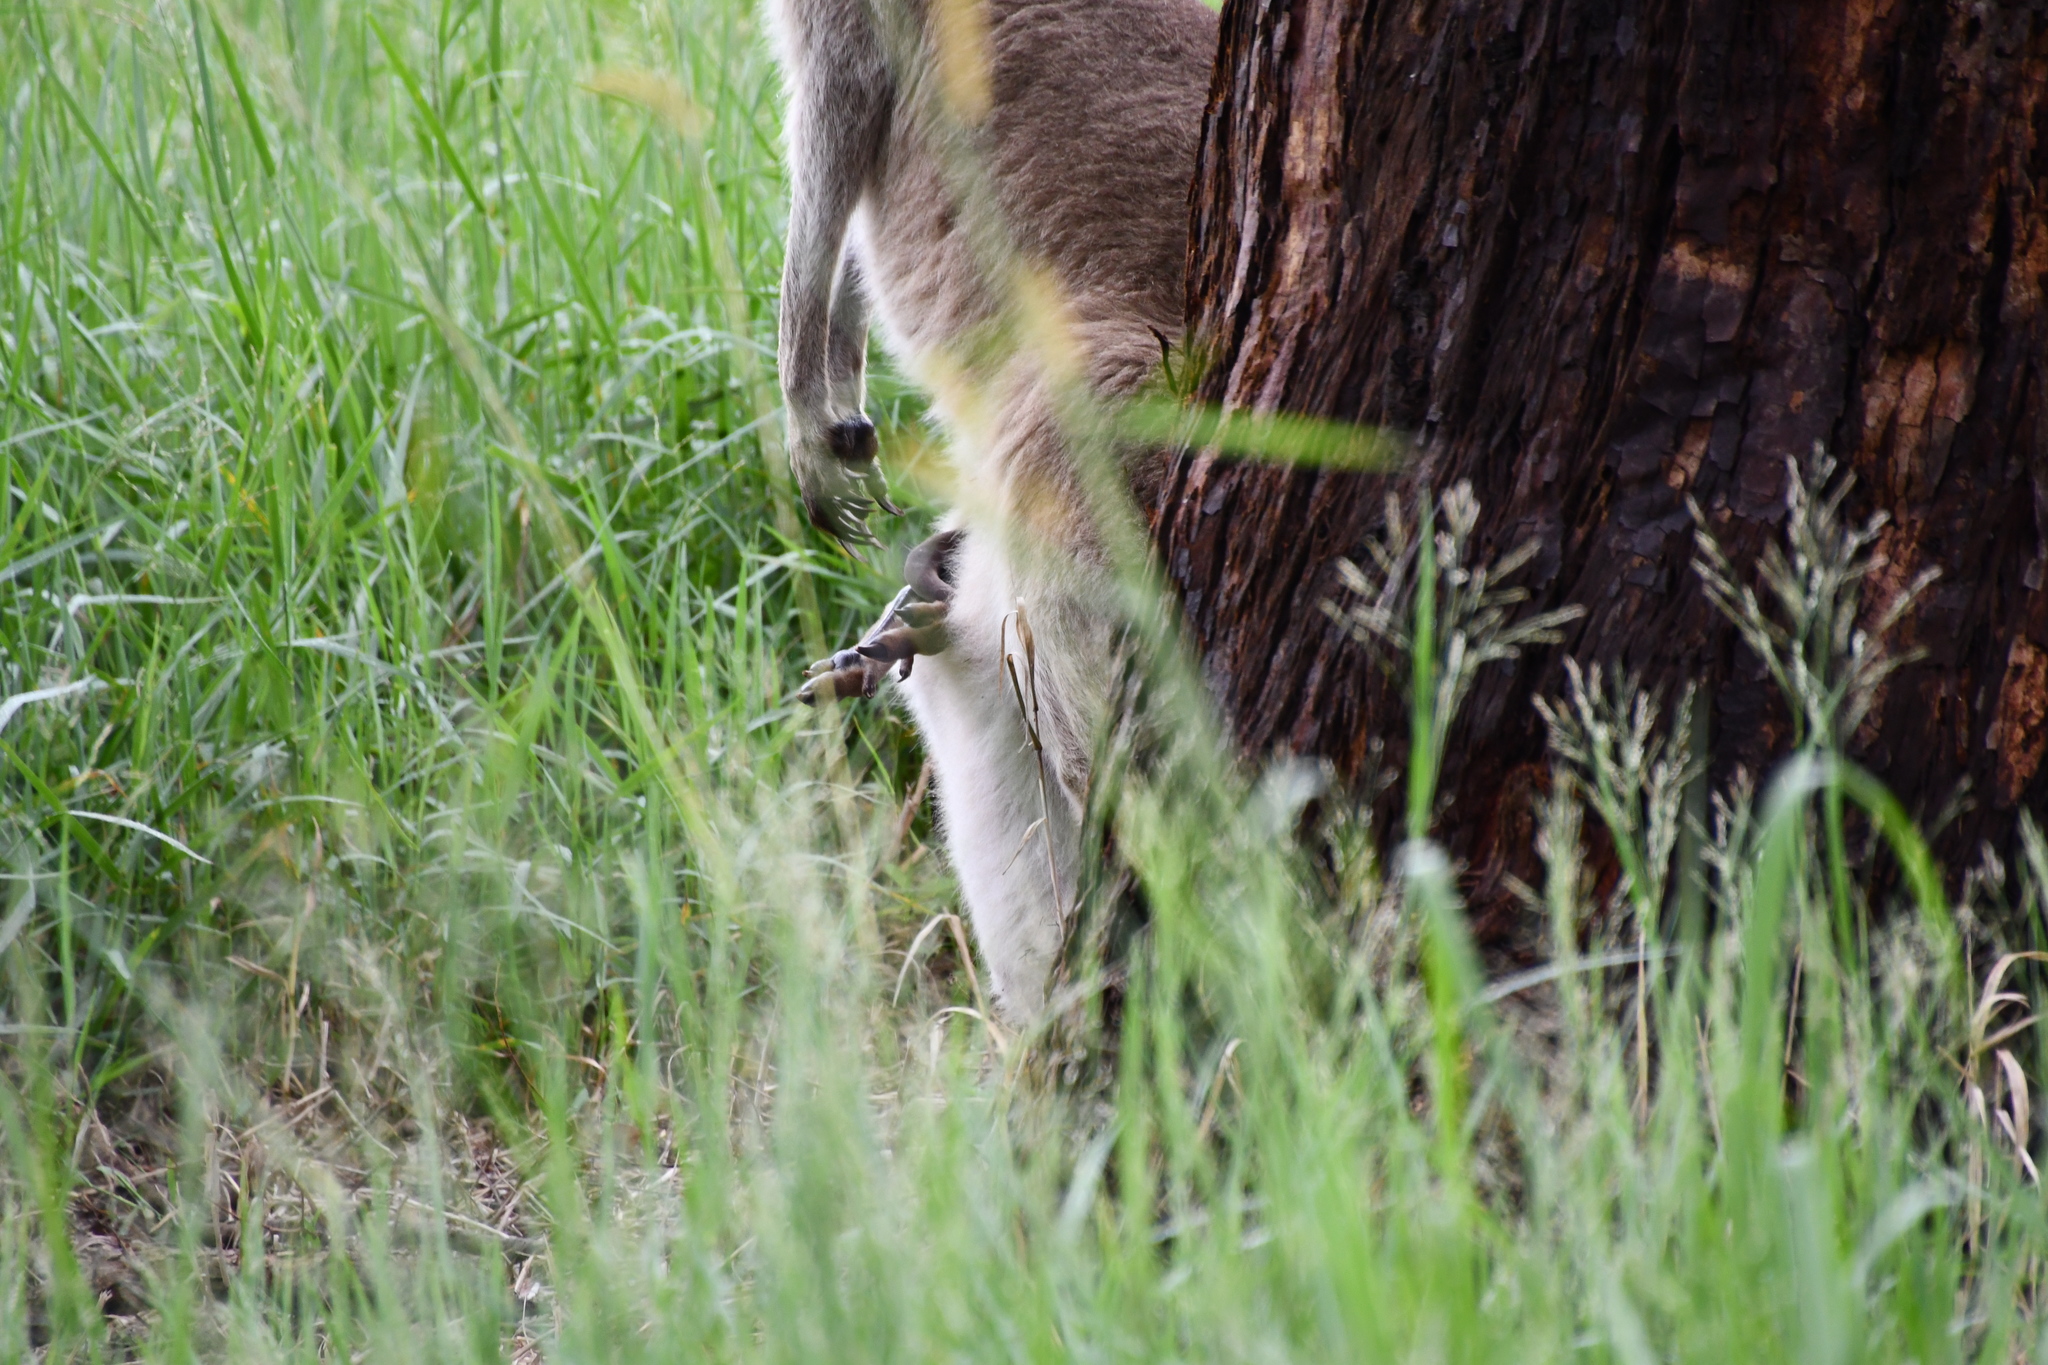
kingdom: Animalia
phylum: Chordata
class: Mammalia
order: Diprotodontia
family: Macropodidae
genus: Macropus
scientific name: Macropus giganteus
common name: Eastern grey kangaroo
